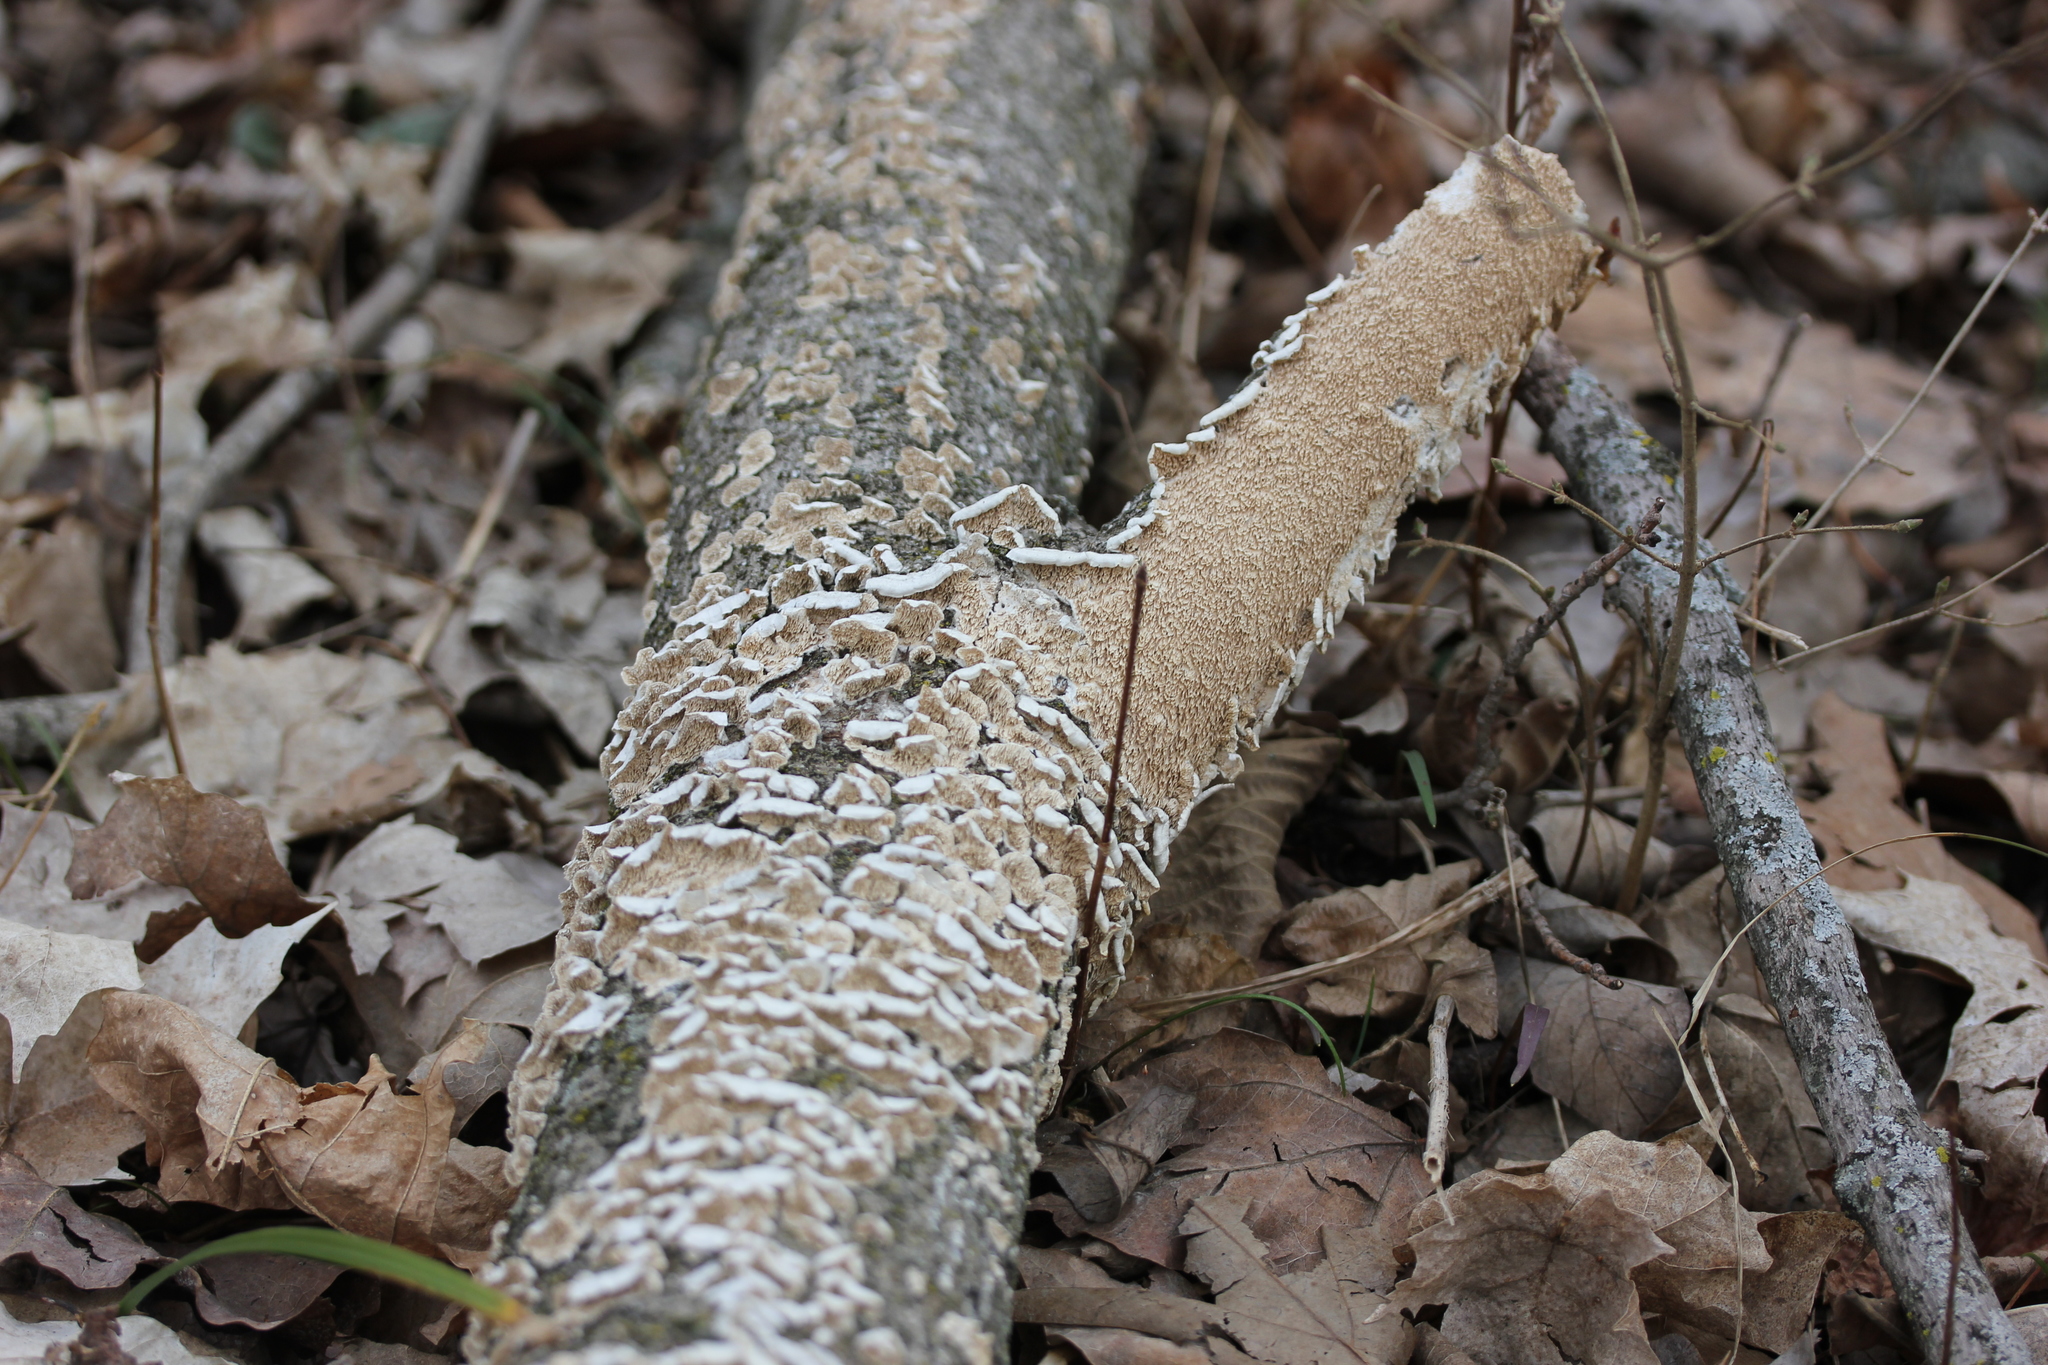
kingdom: Fungi
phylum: Basidiomycota
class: Agaricomycetes
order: Polyporales
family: Irpicaceae
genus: Irpex
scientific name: Irpex lacteus
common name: Milk-white toothed polypore
